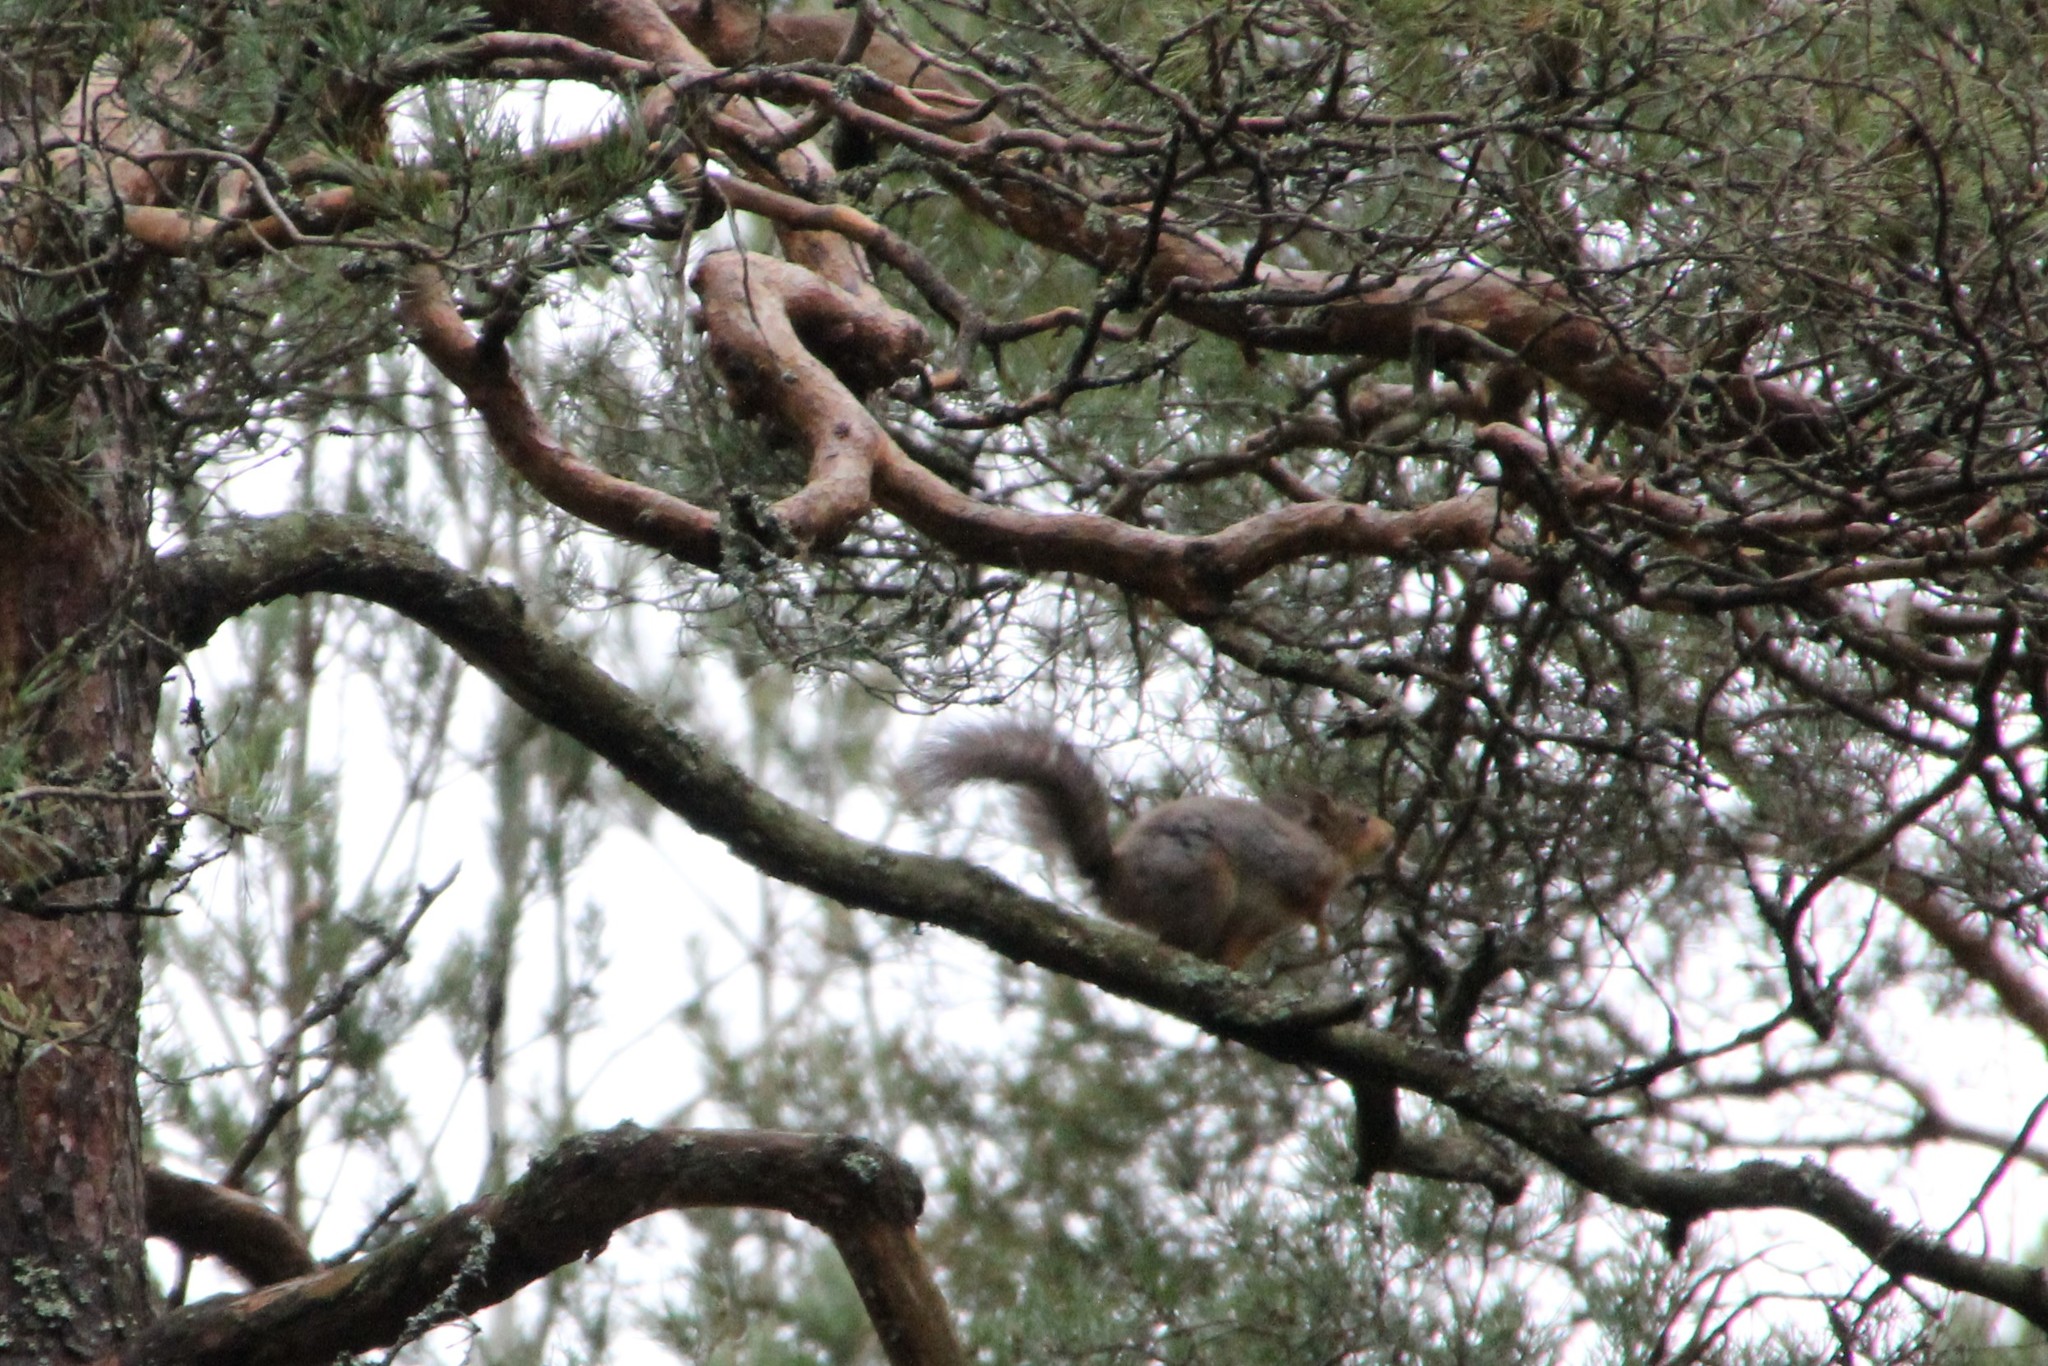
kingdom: Animalia
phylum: Chordata
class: Mammalia
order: Rodentia
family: Sciuridae
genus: Sciurus
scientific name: Sciurus vulgaris
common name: Eurasian red squirrel
